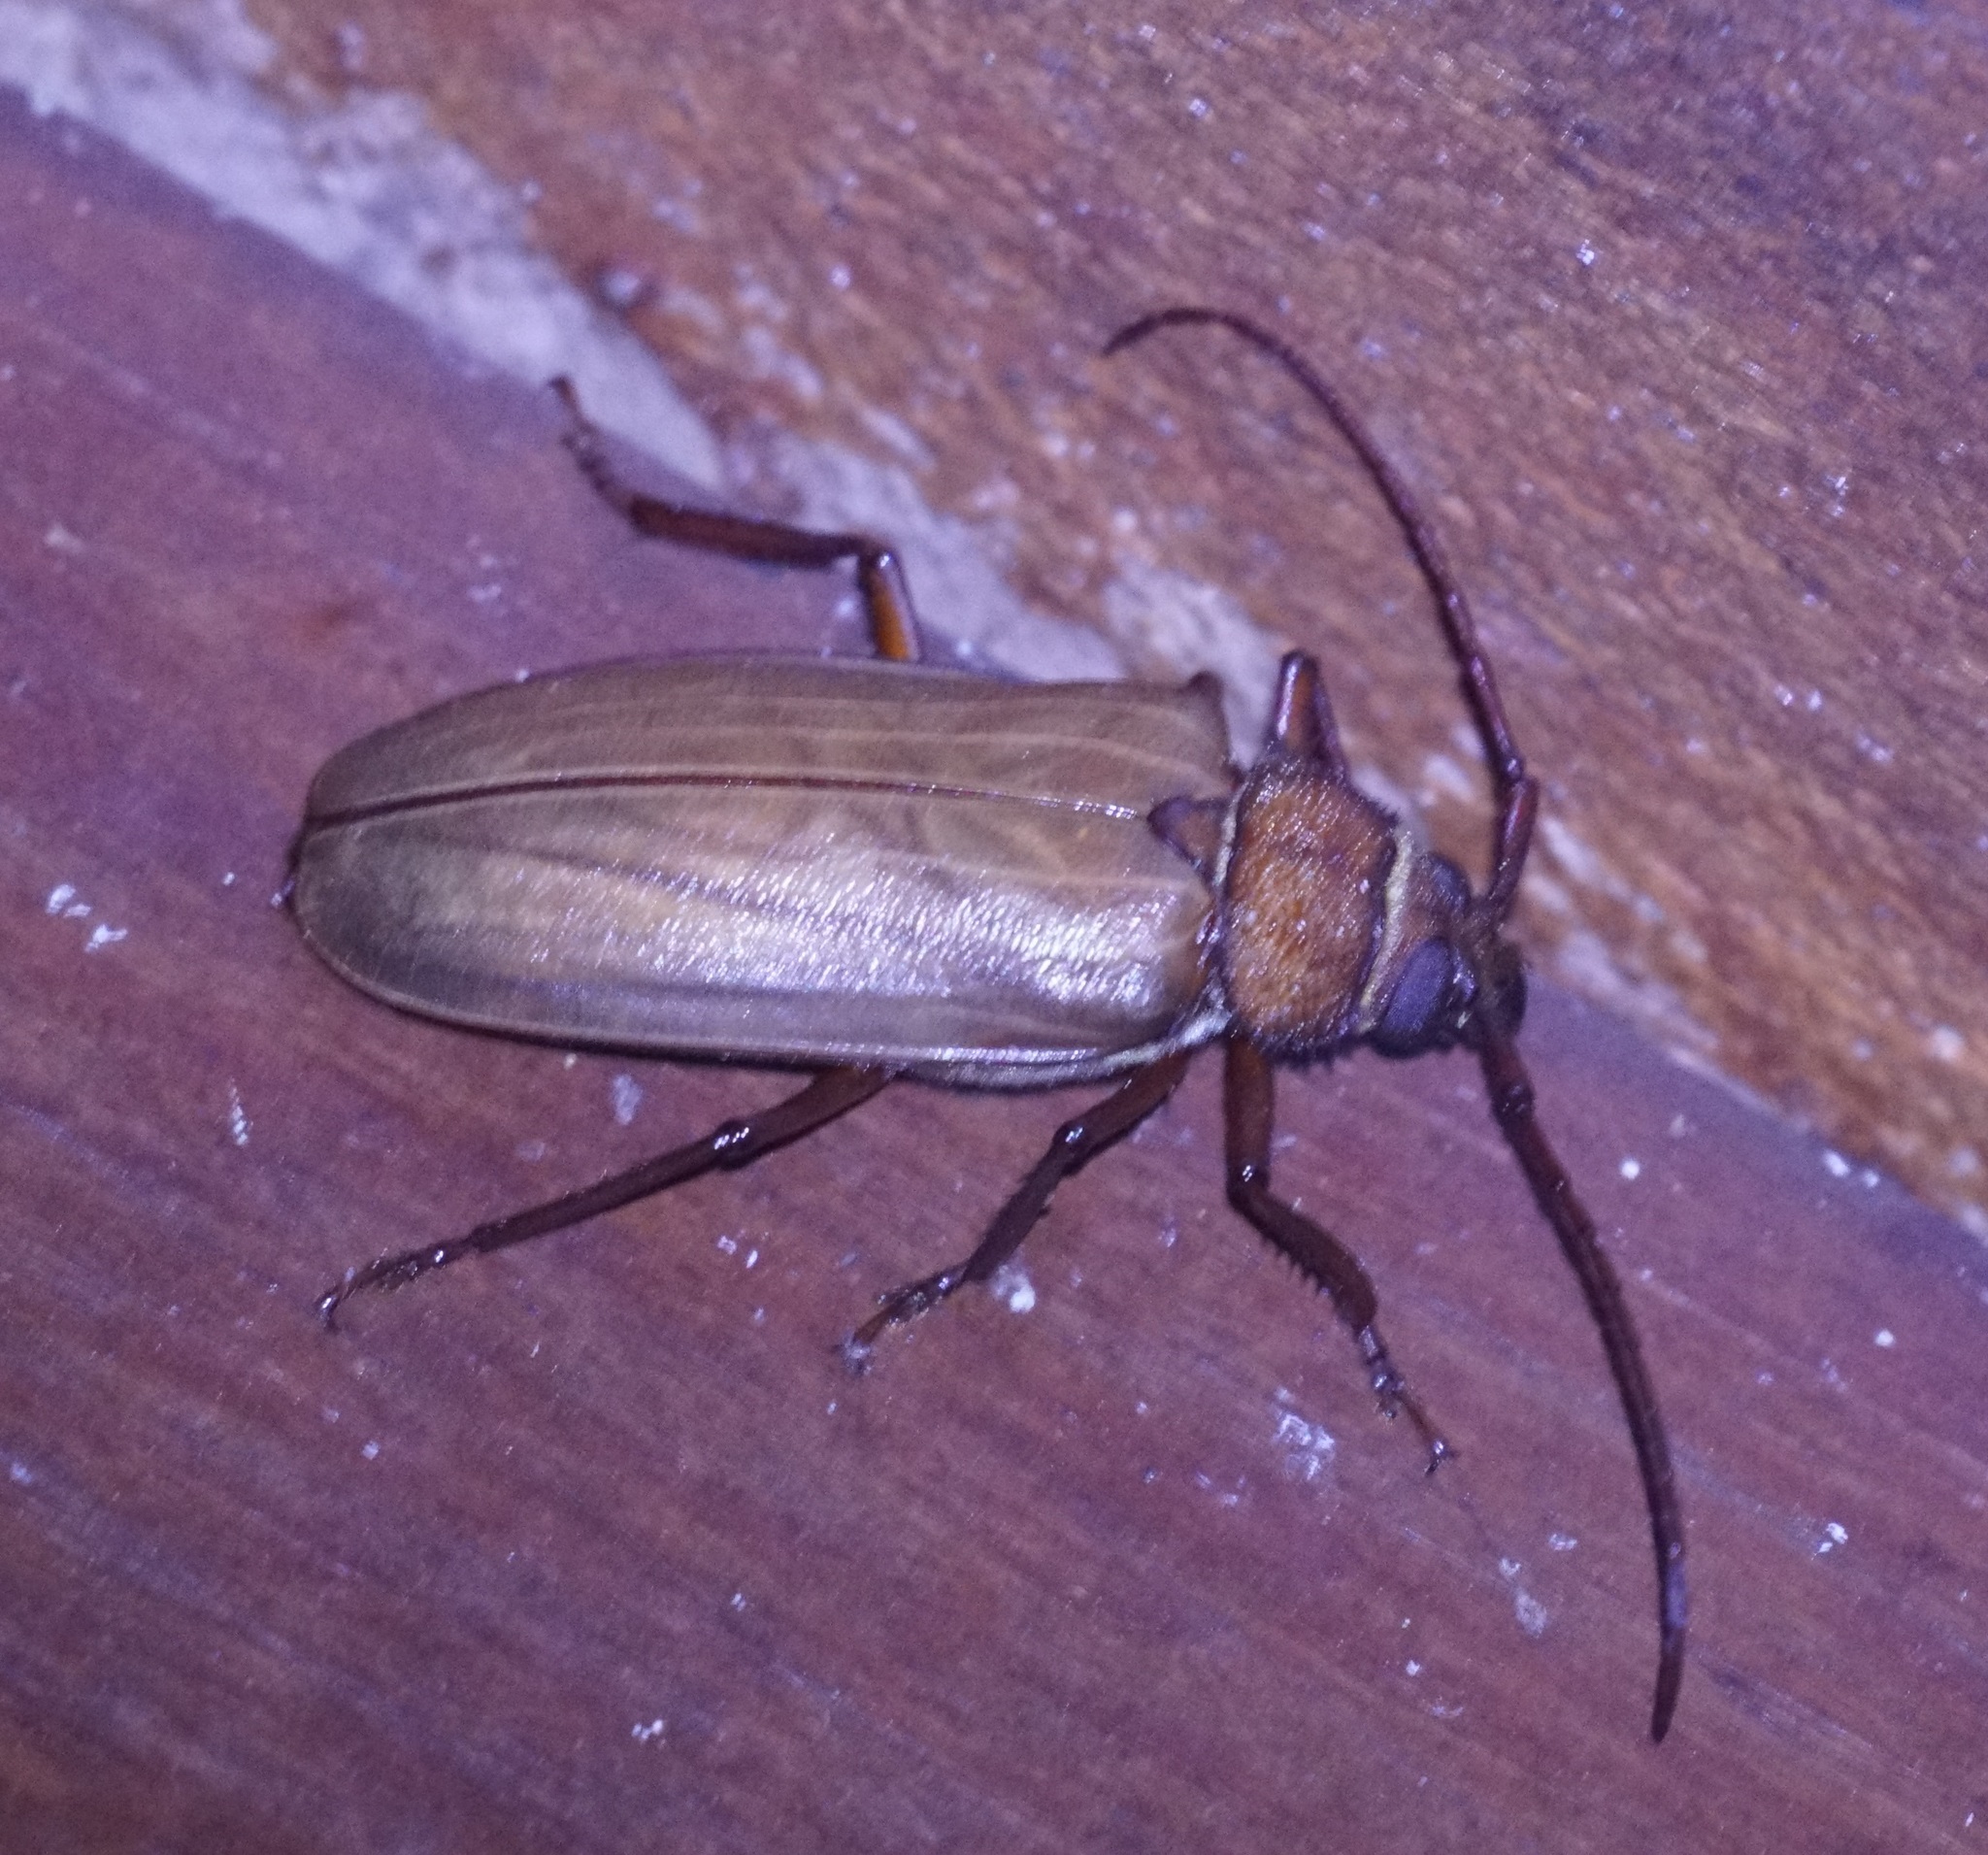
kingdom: Animalia
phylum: Arthropoda
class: Insecta
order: Coleoptera
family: Cerambycidae
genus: Agrianome
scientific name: Agrianome spinicollis
